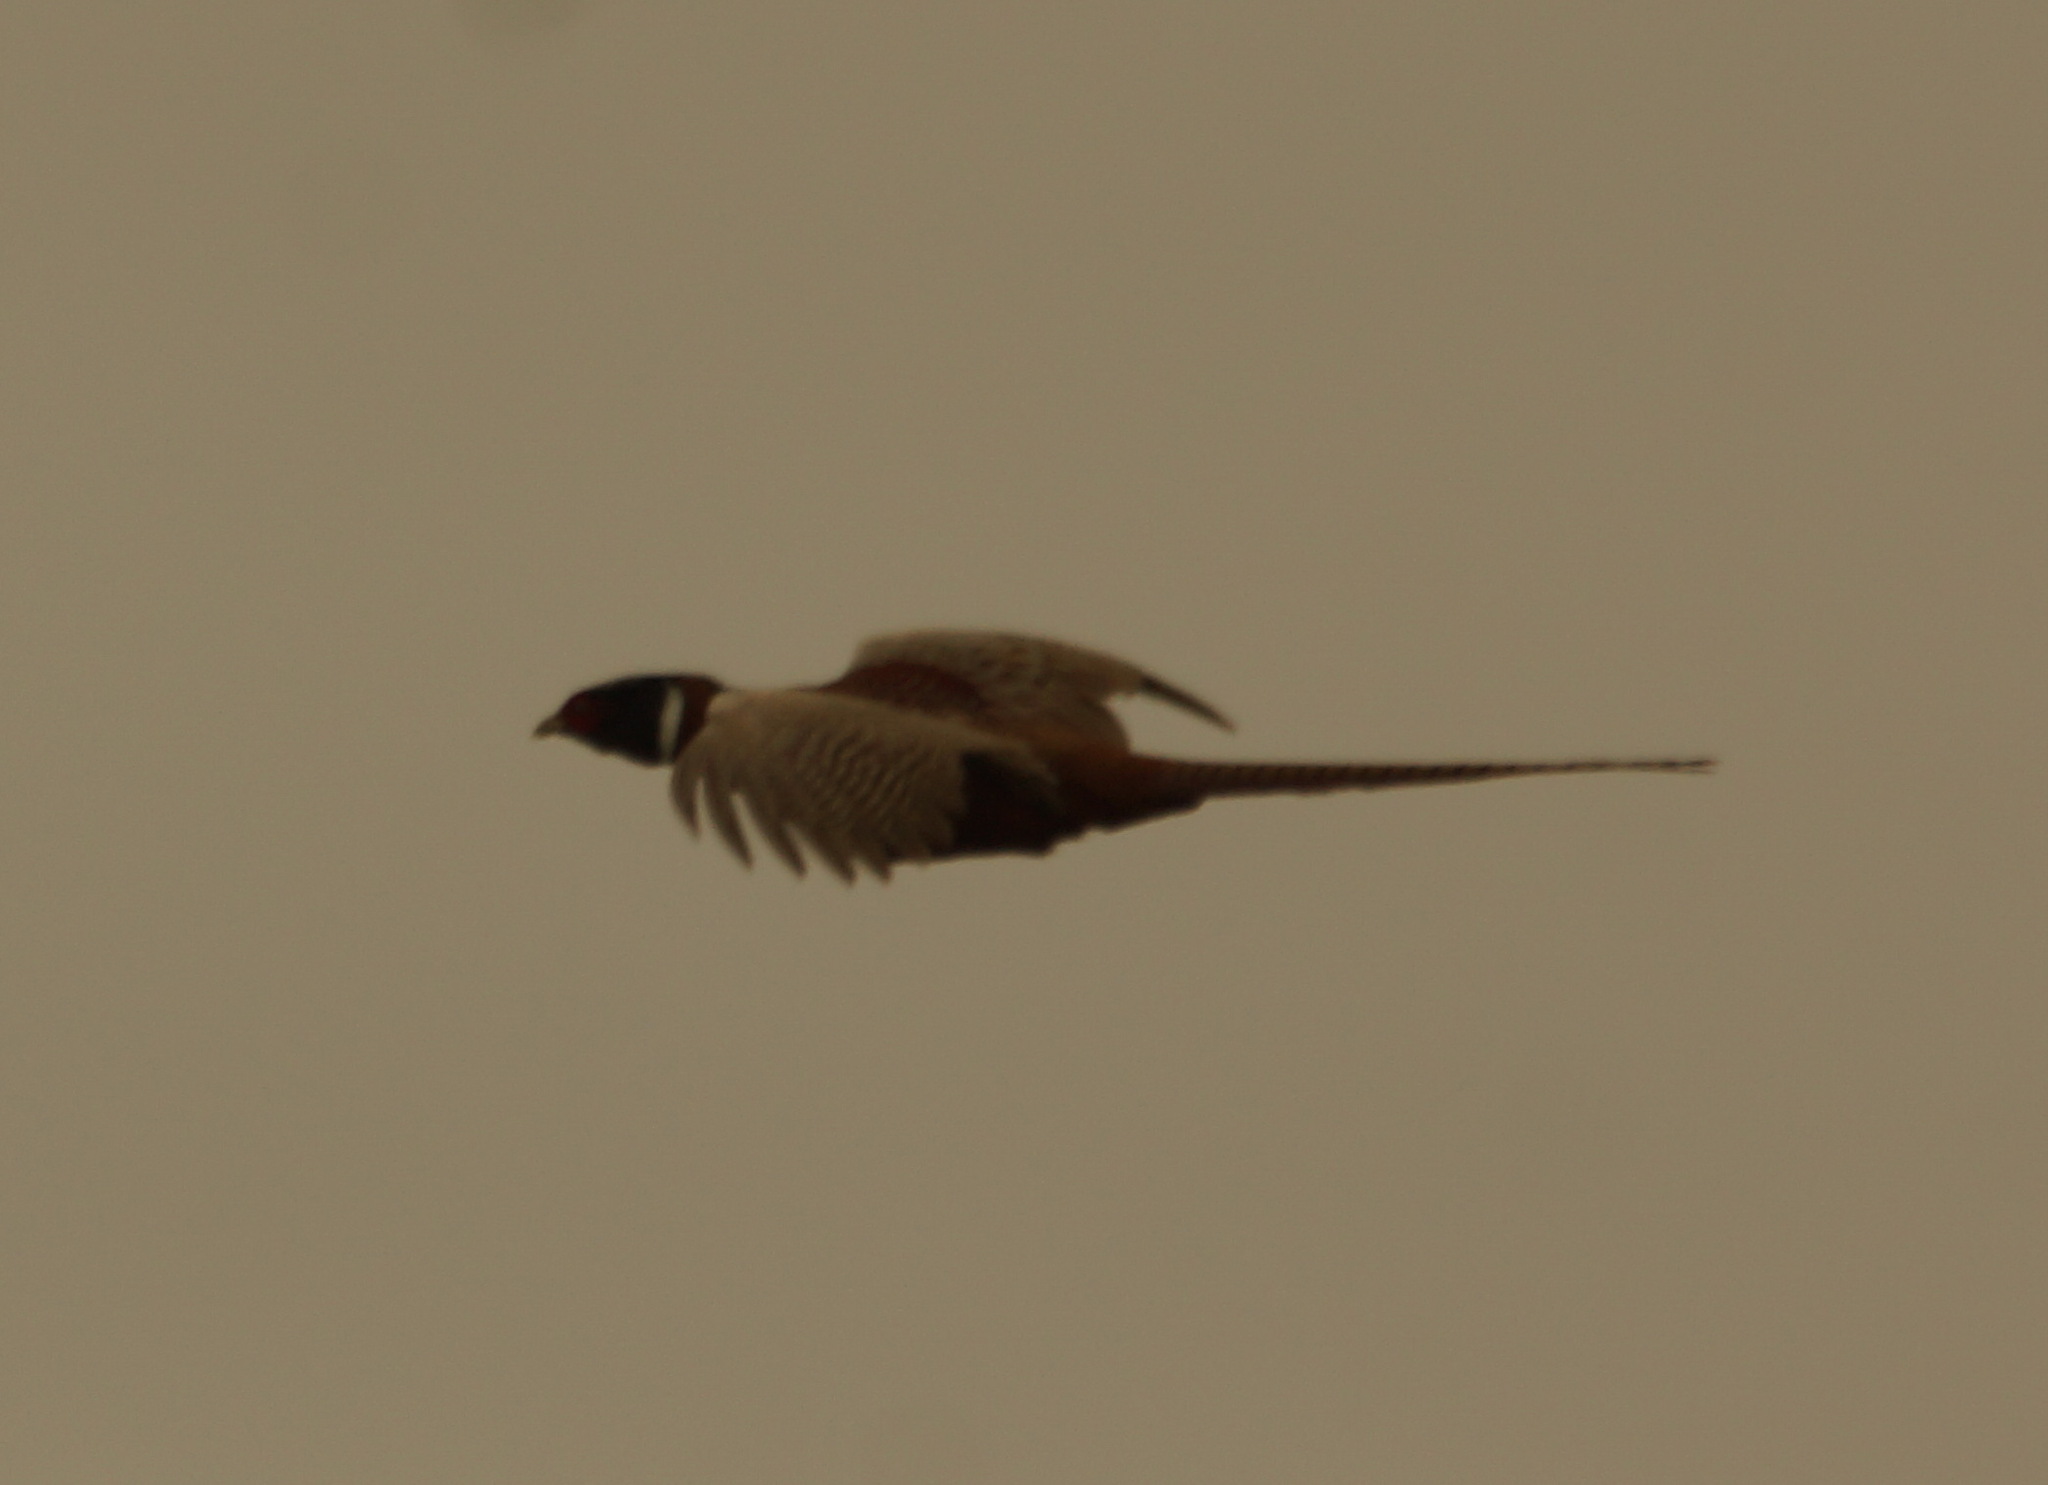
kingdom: Animalia
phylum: Chordata
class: Aves
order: Galliformes
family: Phasianidae
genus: Phasianus
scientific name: Phasianus colchicus
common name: Common pheasant
